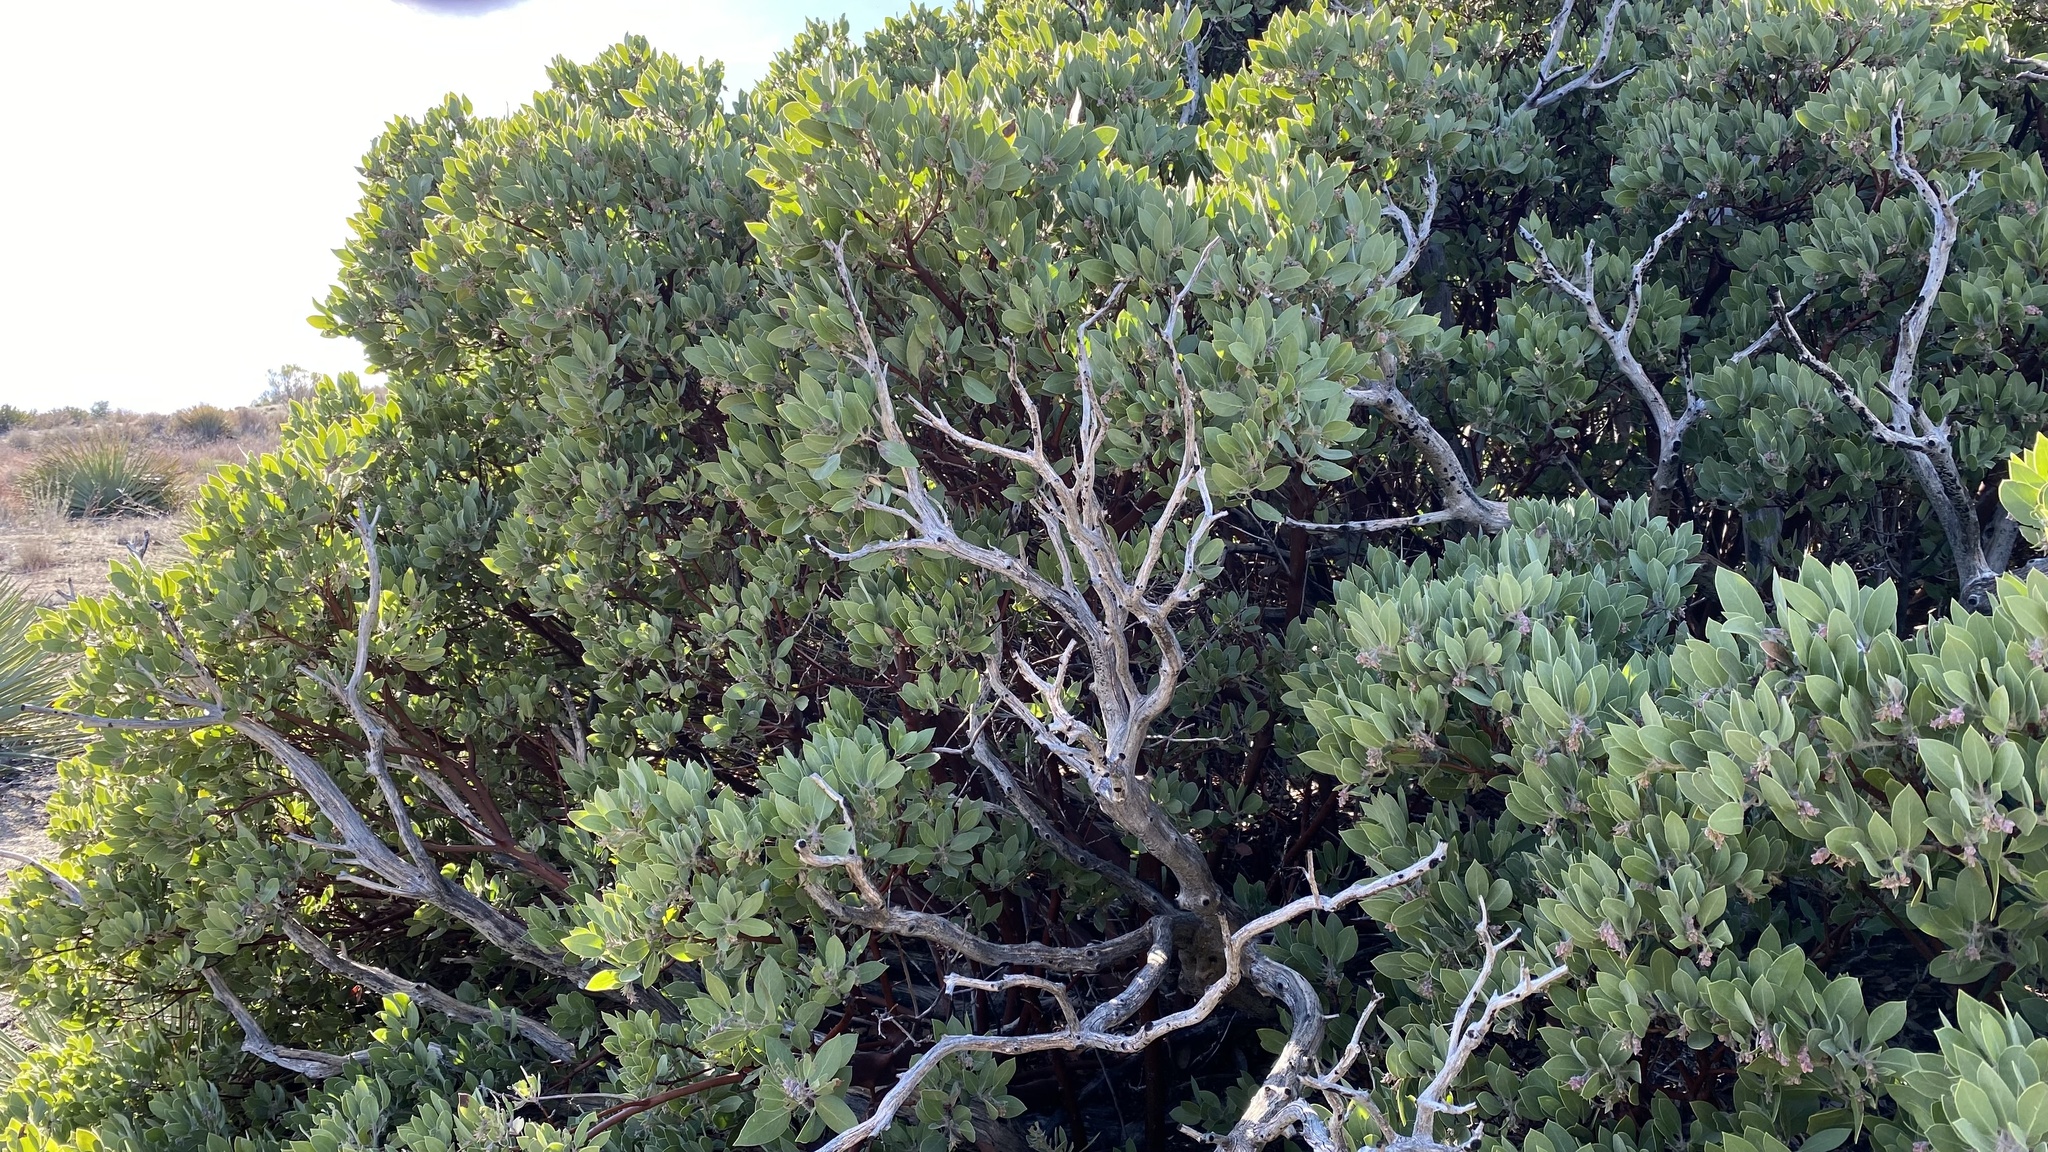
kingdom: Plantae
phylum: Tracheophyta
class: Magnoliopsida
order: Ericales
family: Ericaceae
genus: Arctostaphylos
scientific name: Arctostaphylos glandulosa
